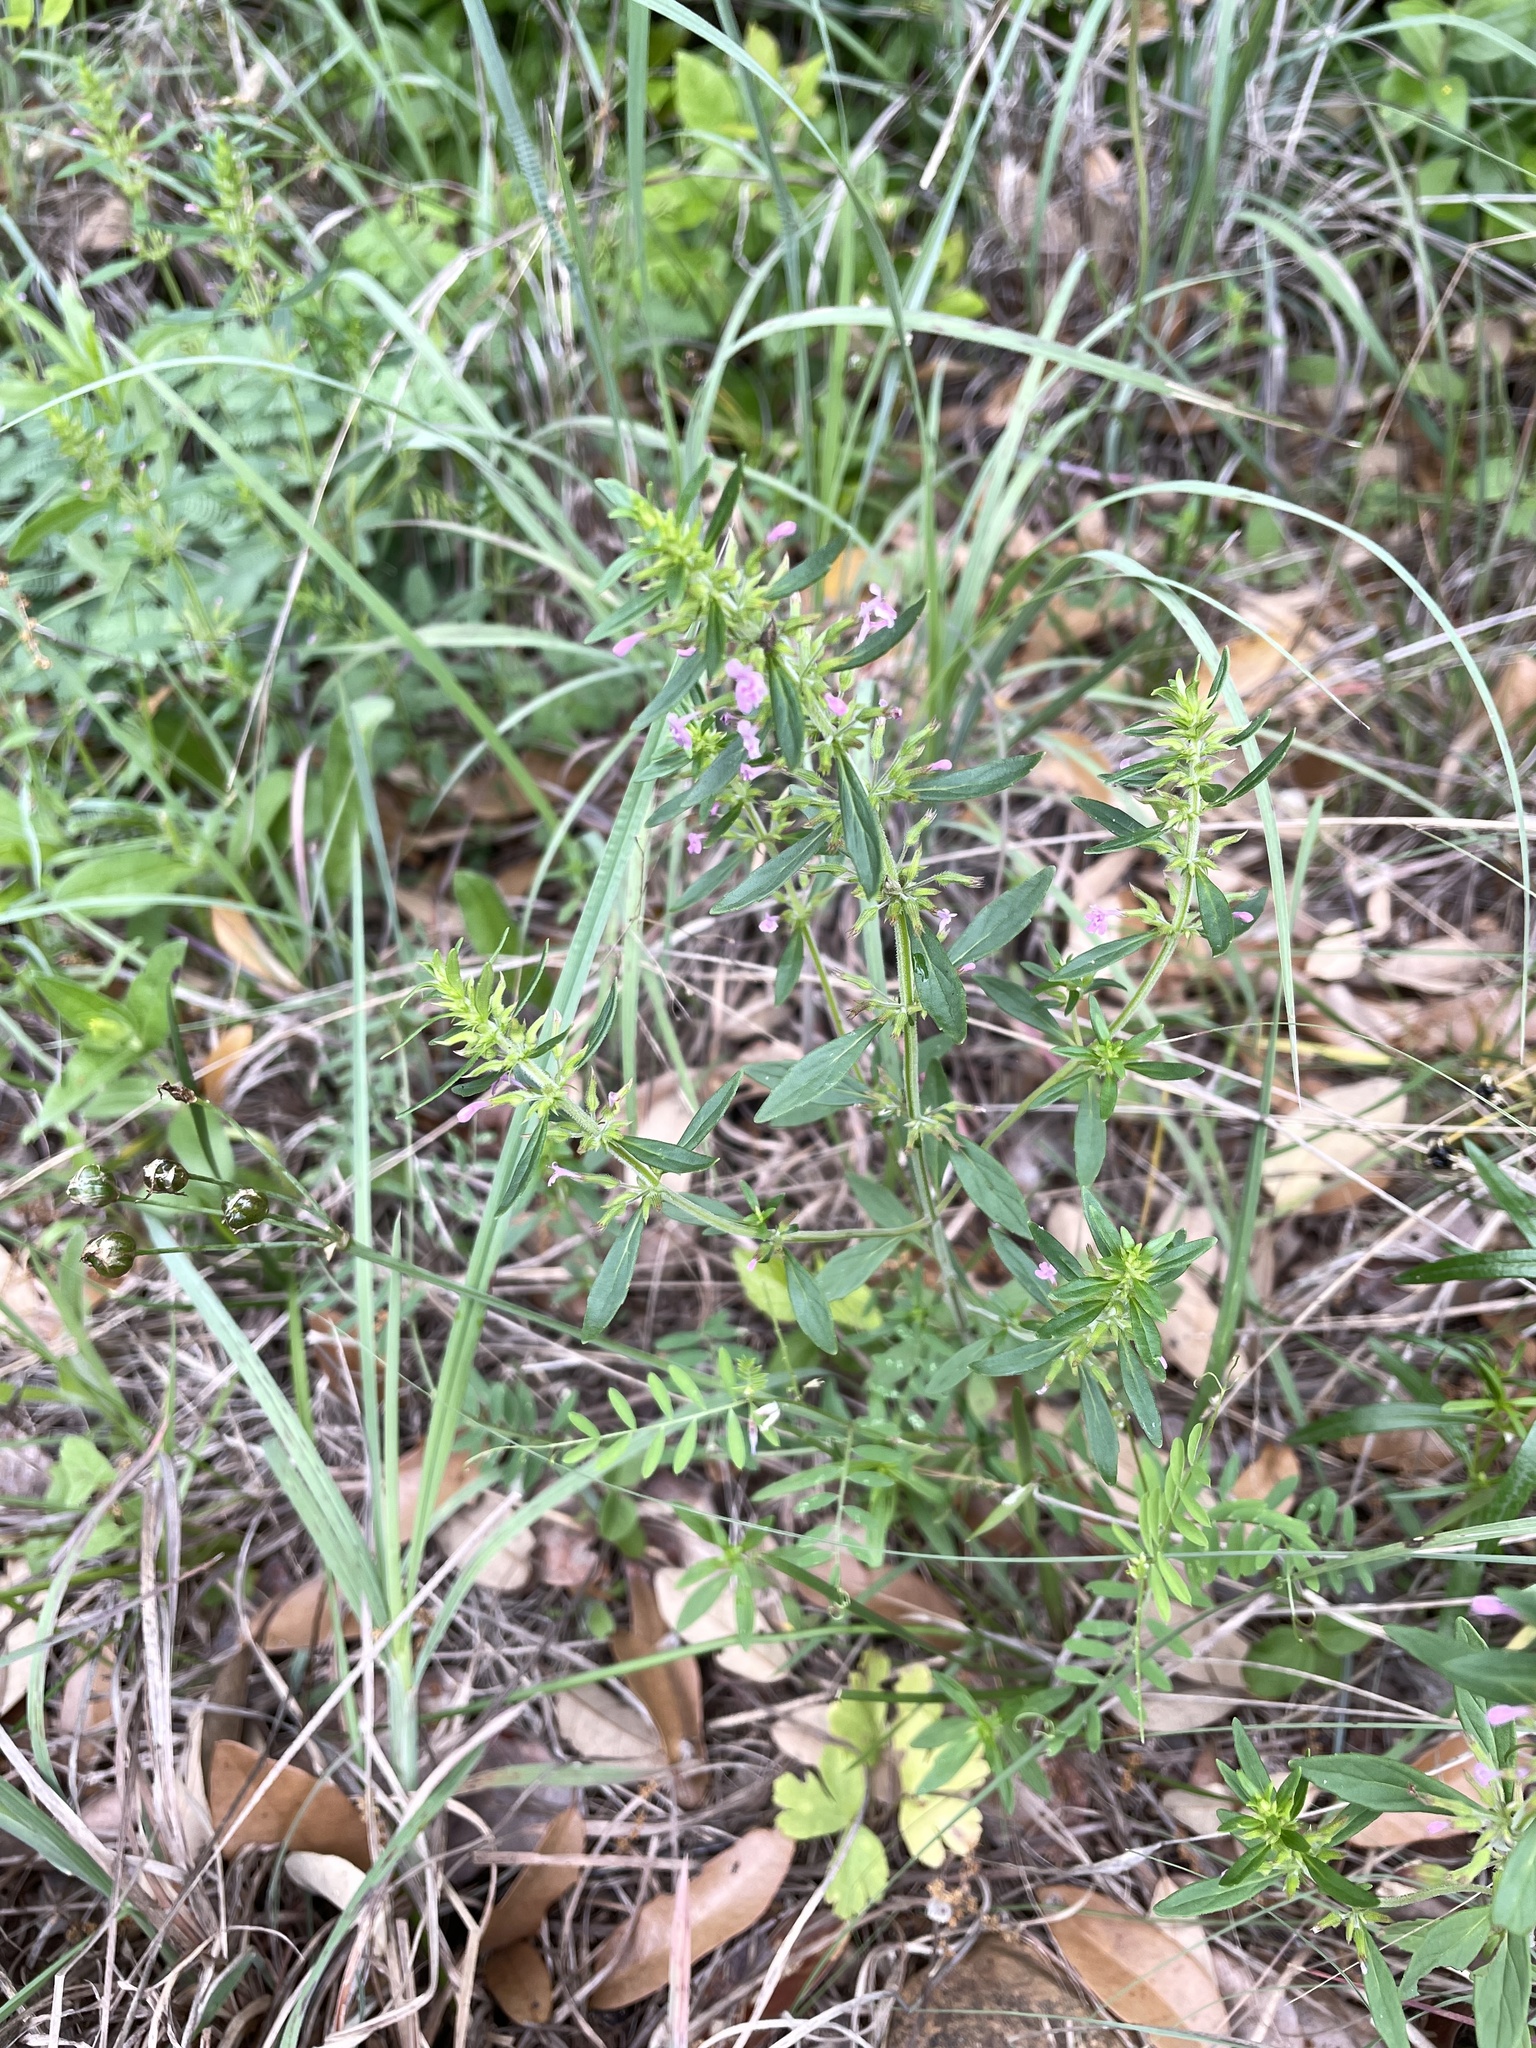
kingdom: Plantae
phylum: Tracheophyta
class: Magnoliopsida
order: Lamiales
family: Lamiaceae
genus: Hedeoma
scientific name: Hedeoma acinoides
